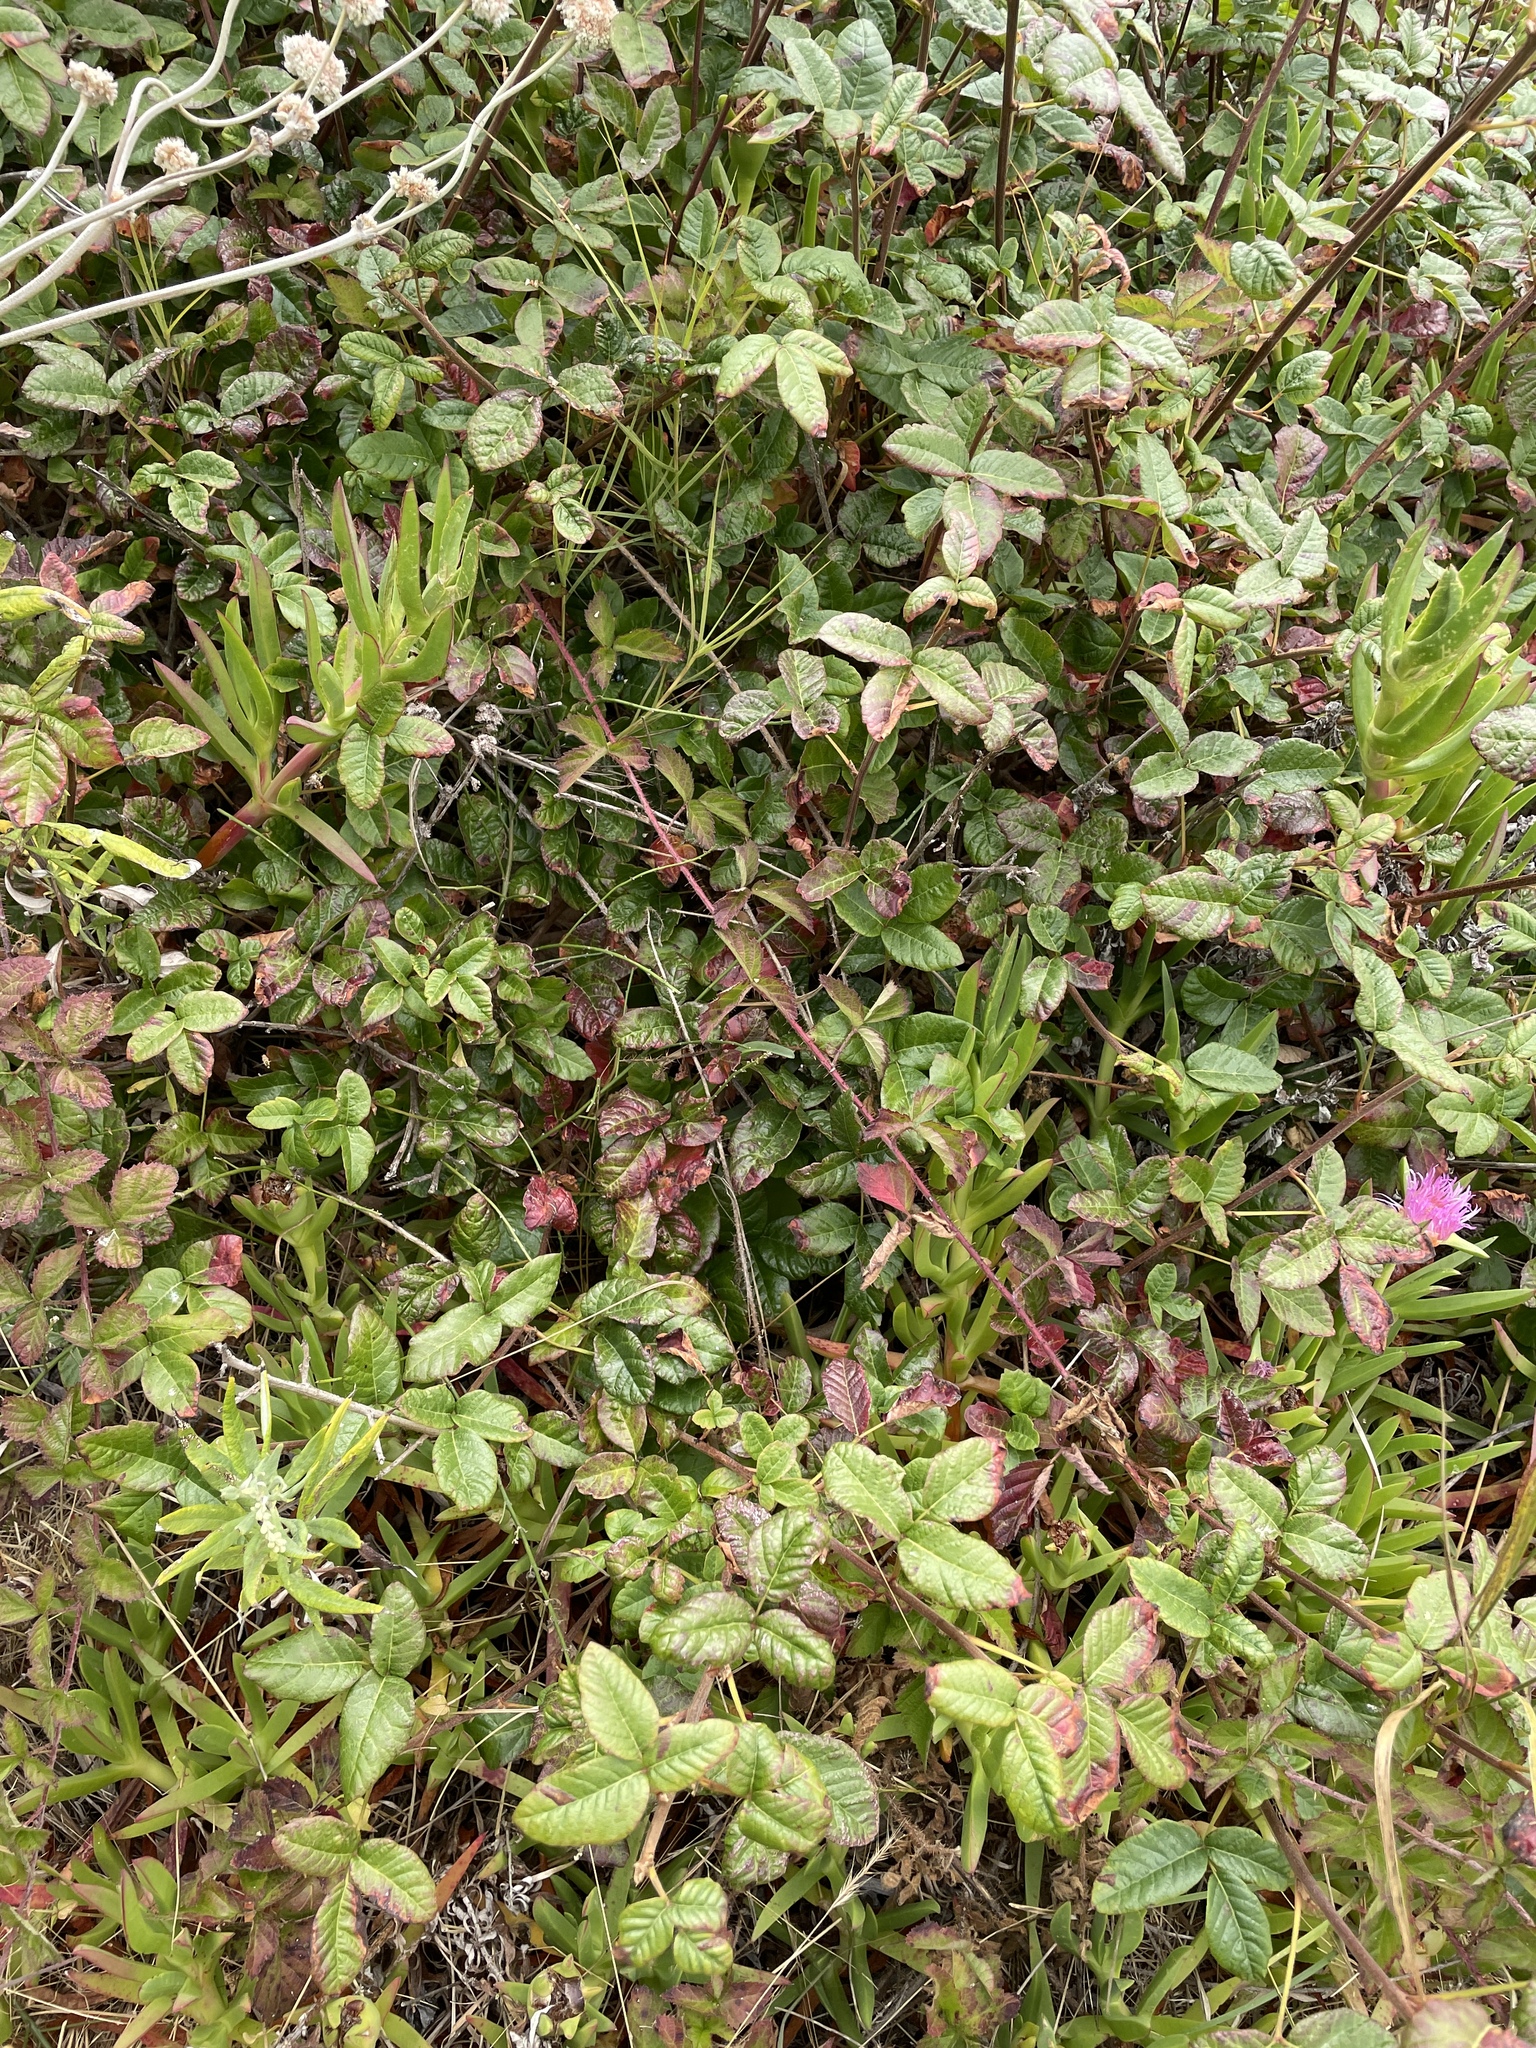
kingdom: Plantae
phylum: Tracheophyta
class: Magnoliopsida
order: Sapindales
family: Anacardiaceae
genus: Toxicodendron
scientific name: Toxicodendron diversilobum
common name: Pacific poison-oak
